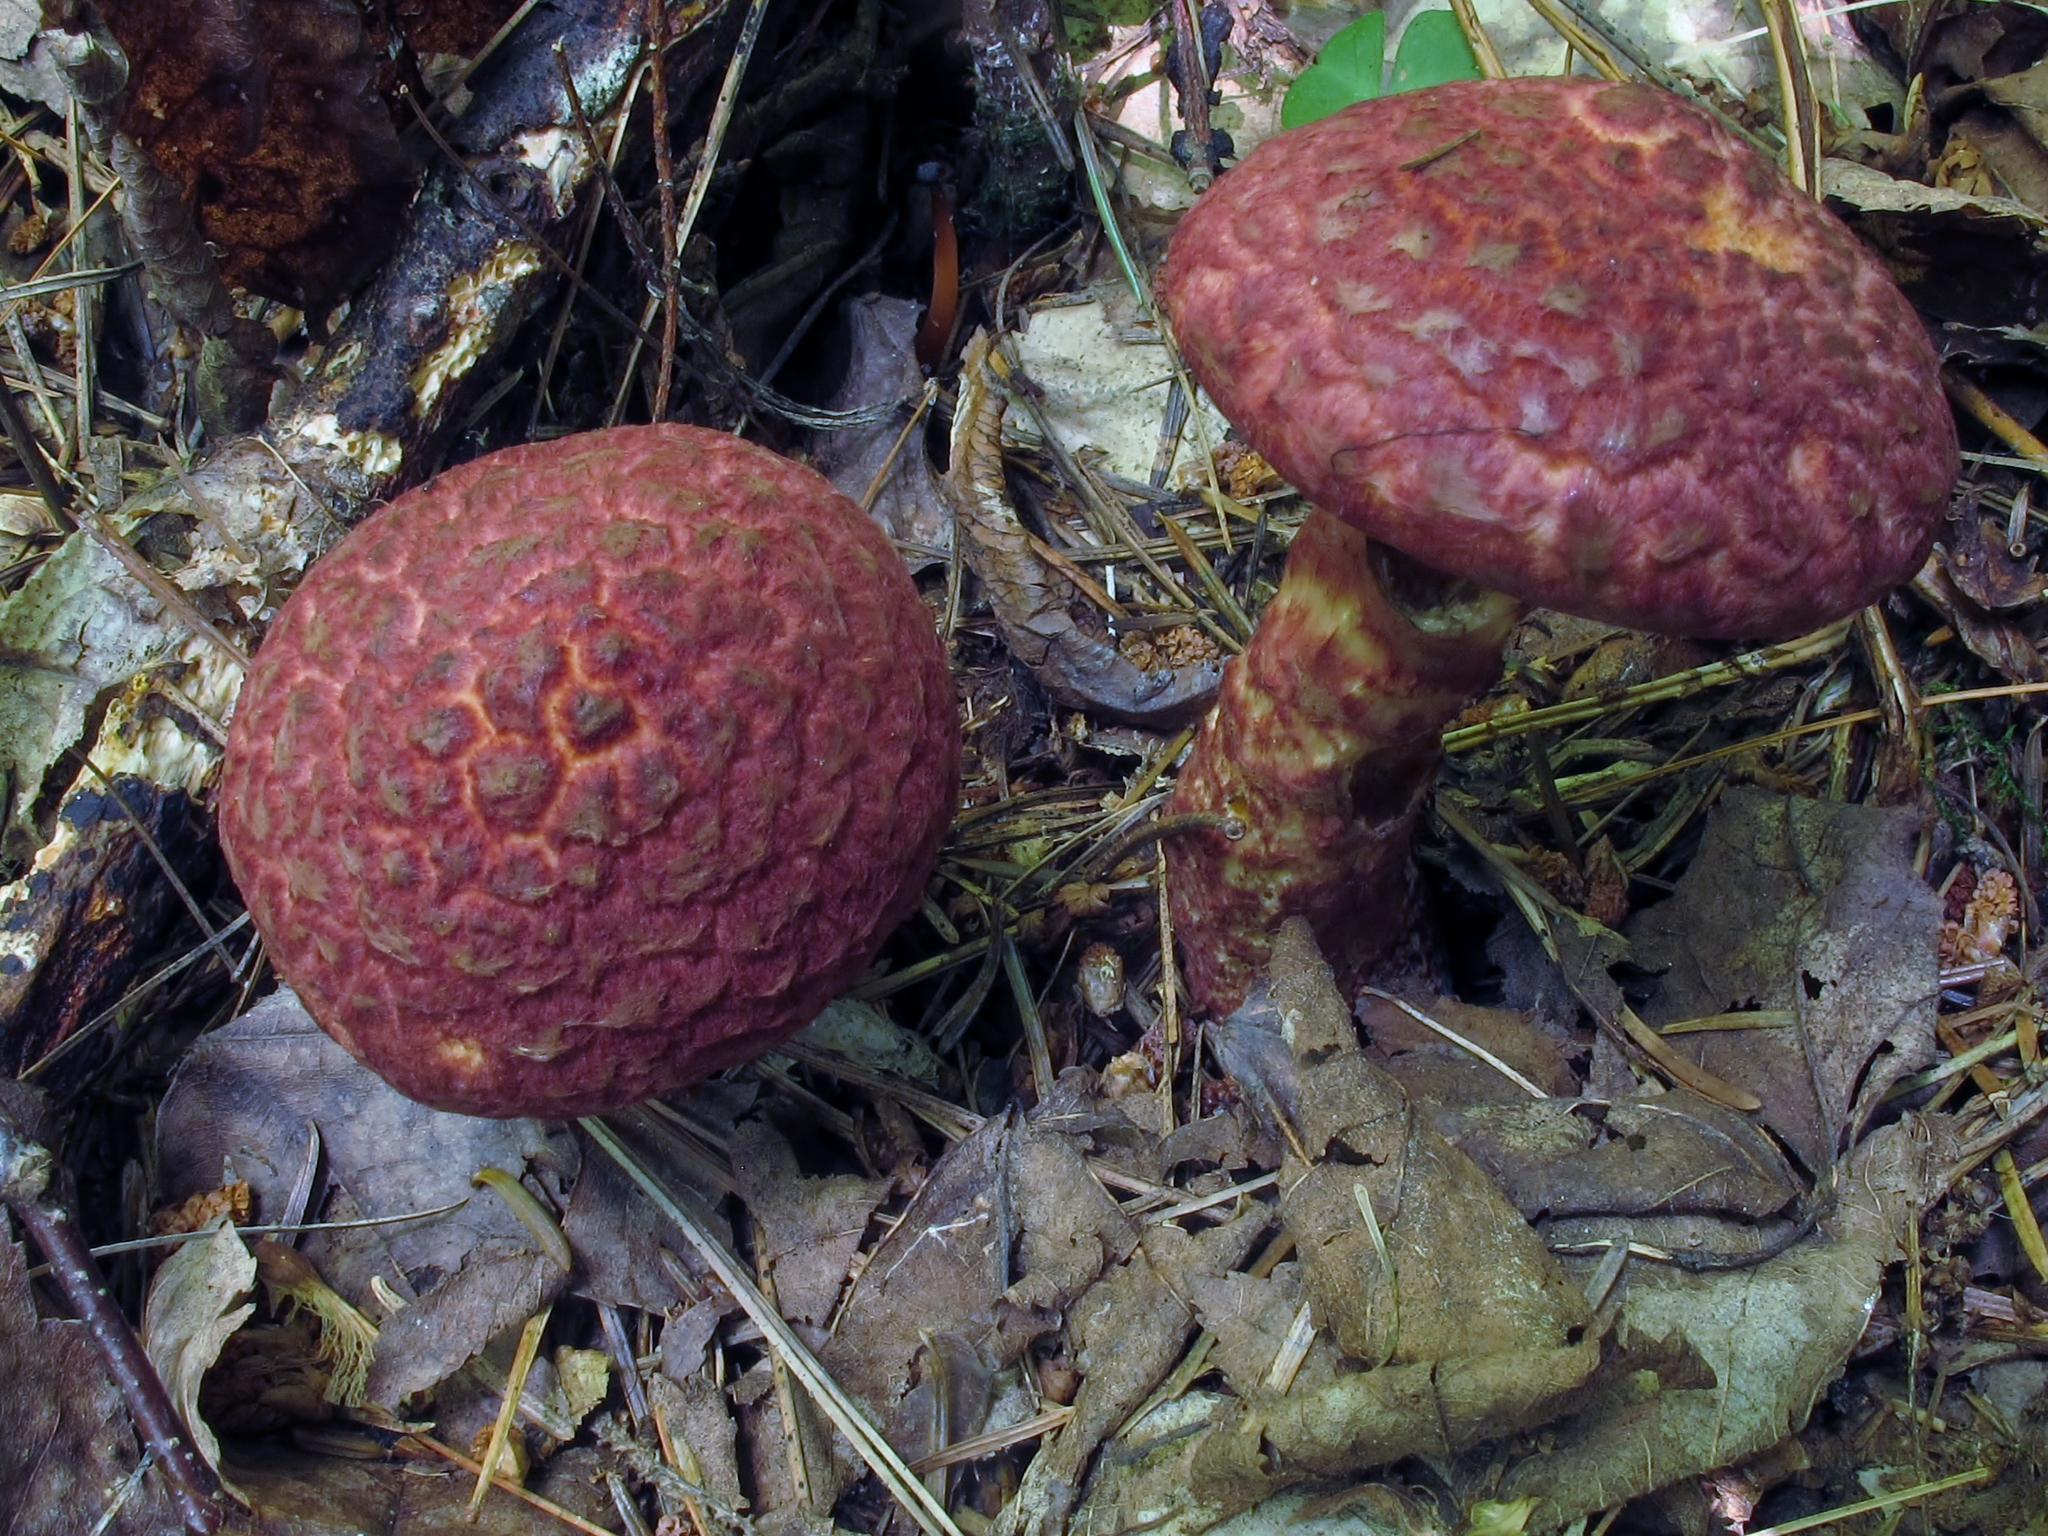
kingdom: Fungi
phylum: Basidiomycota
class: Agaricomycetes
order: Boletales
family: Suillaceae
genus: Suillus
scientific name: Suillus spraguei
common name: Painted suillus
